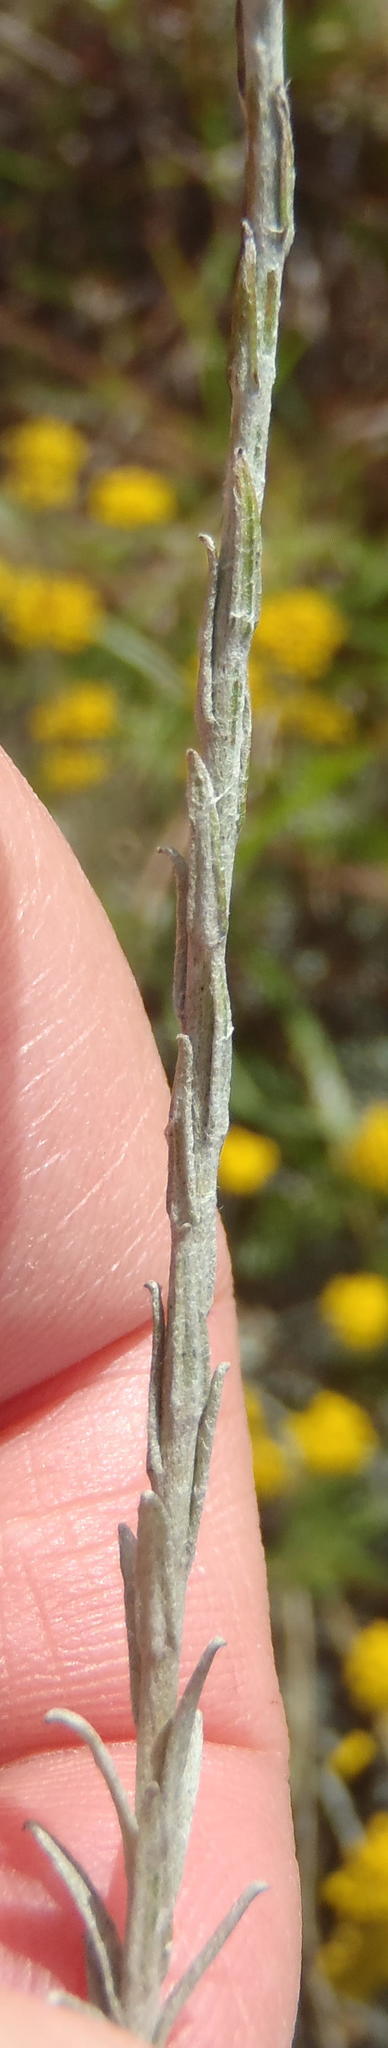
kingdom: Plantae
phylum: Tracheophyta
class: Magnoliopsida
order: Asterales
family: Asteraceae
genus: Helichrysum
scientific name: Helichrysum anomalum
